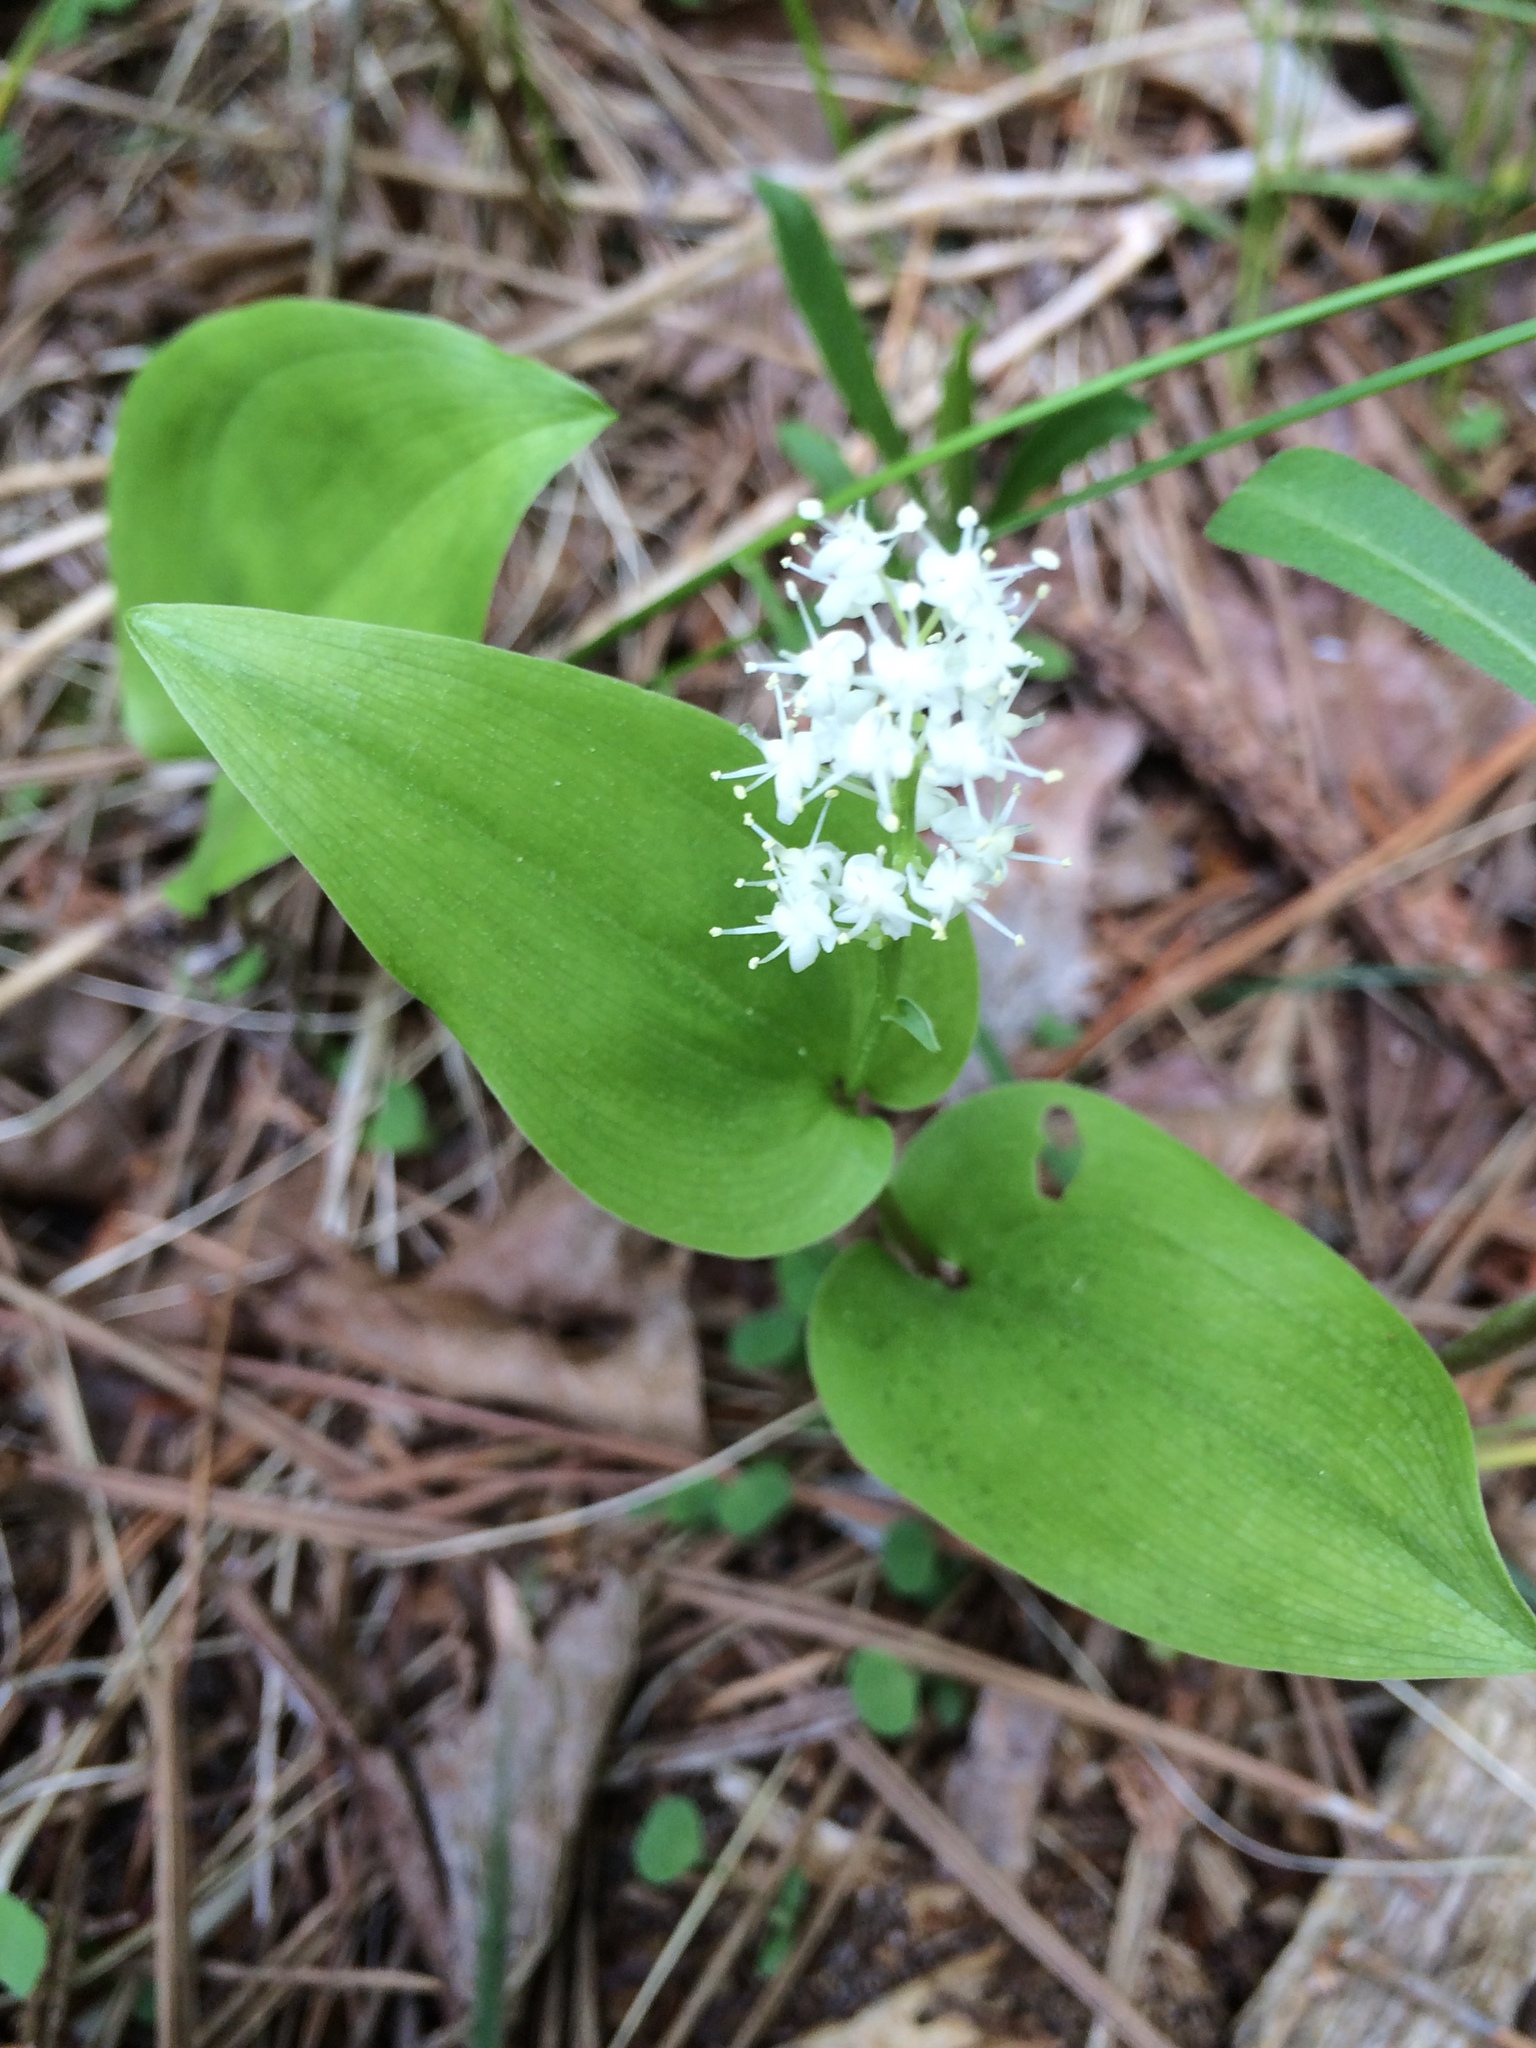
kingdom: Plantae
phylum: Tracheophyta
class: Liliopsida
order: Asparagales
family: Asparagaceae
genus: Maianthemum
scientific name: Maianthemum canadense
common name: False lily-of-the-valley
